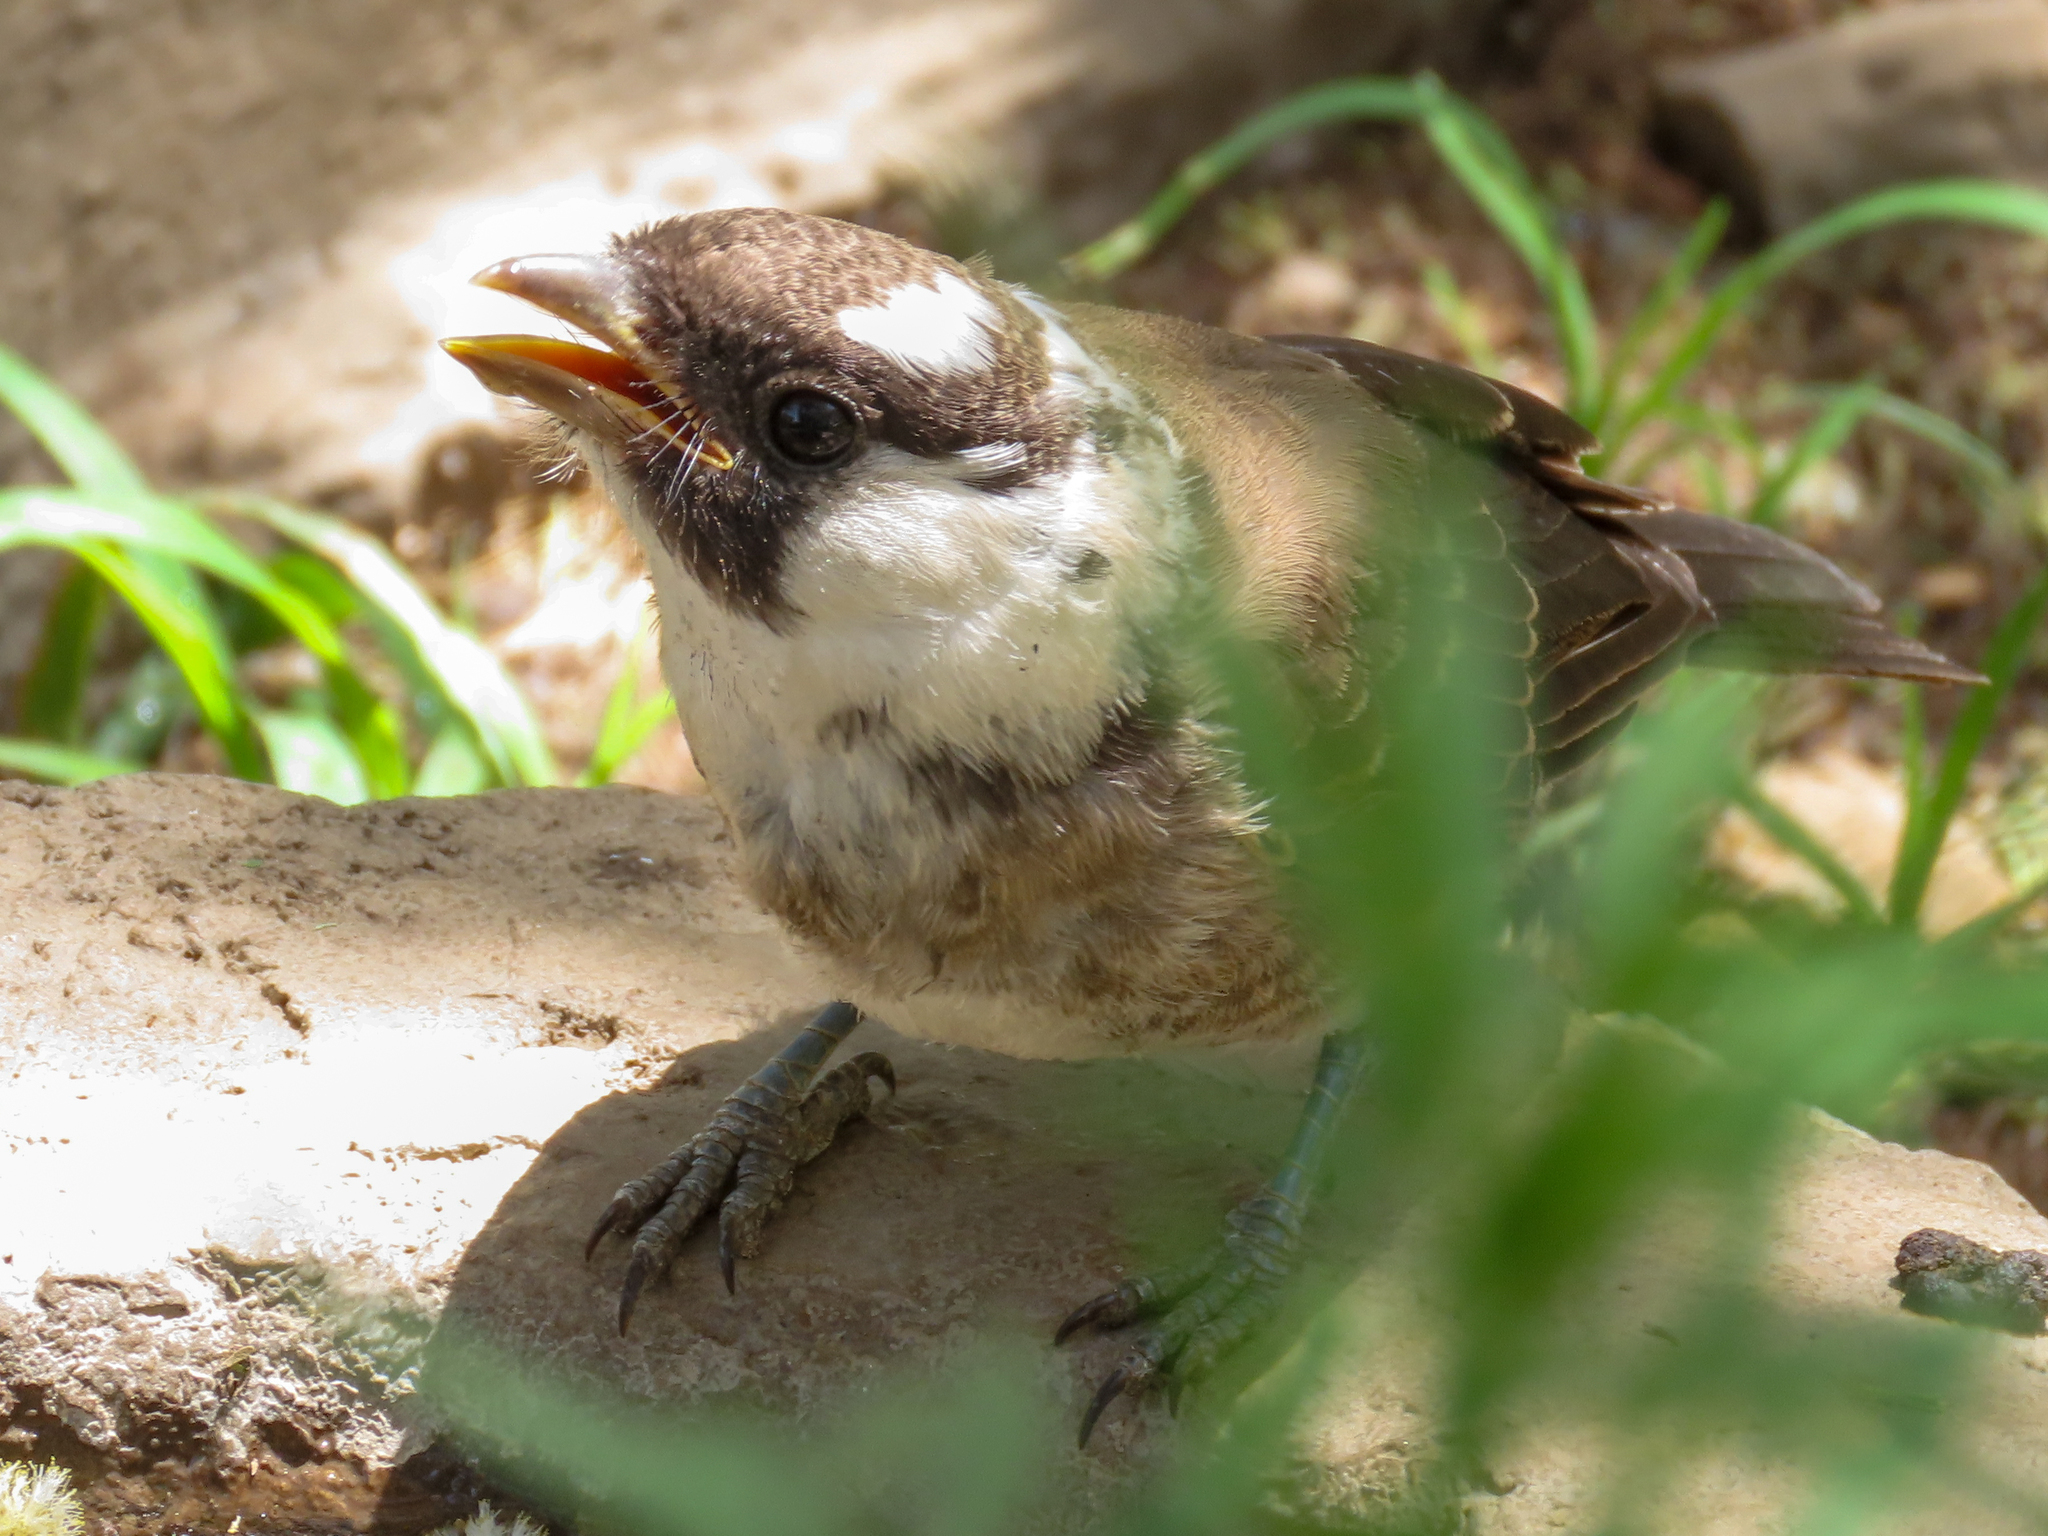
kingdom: Animalia
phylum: Chordata
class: Aves
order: Passeriformes
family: Laniidae
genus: Eurocephalus
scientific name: Eurocephalus ruppelli
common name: Northern white-crowned shrike
